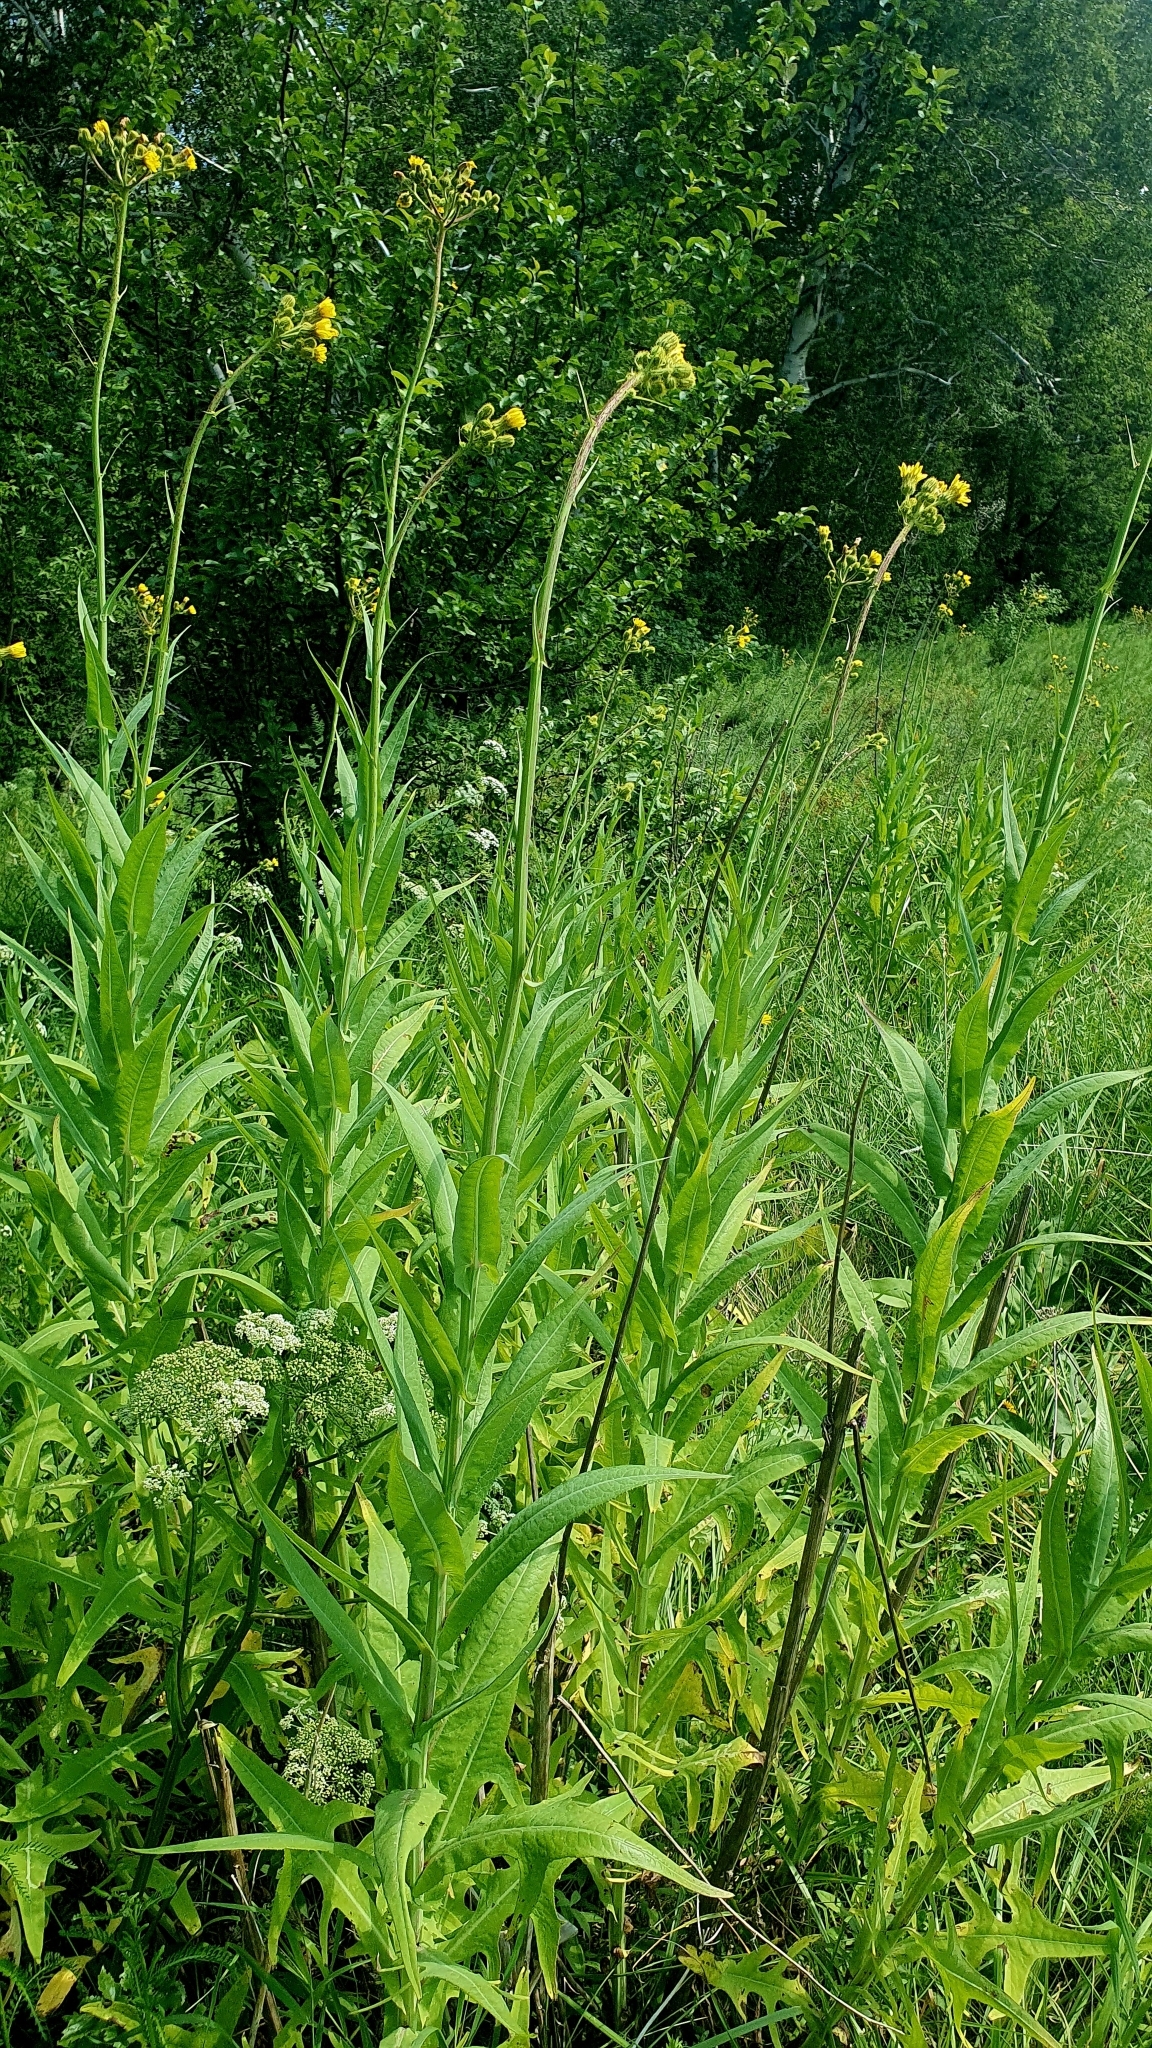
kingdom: Plantae
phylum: Tracheophyta
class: Magnoliopsida
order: Asterales
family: Asteraceae
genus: Sonchus
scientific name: Sonchus palustris
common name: Marsh sow-thistle
